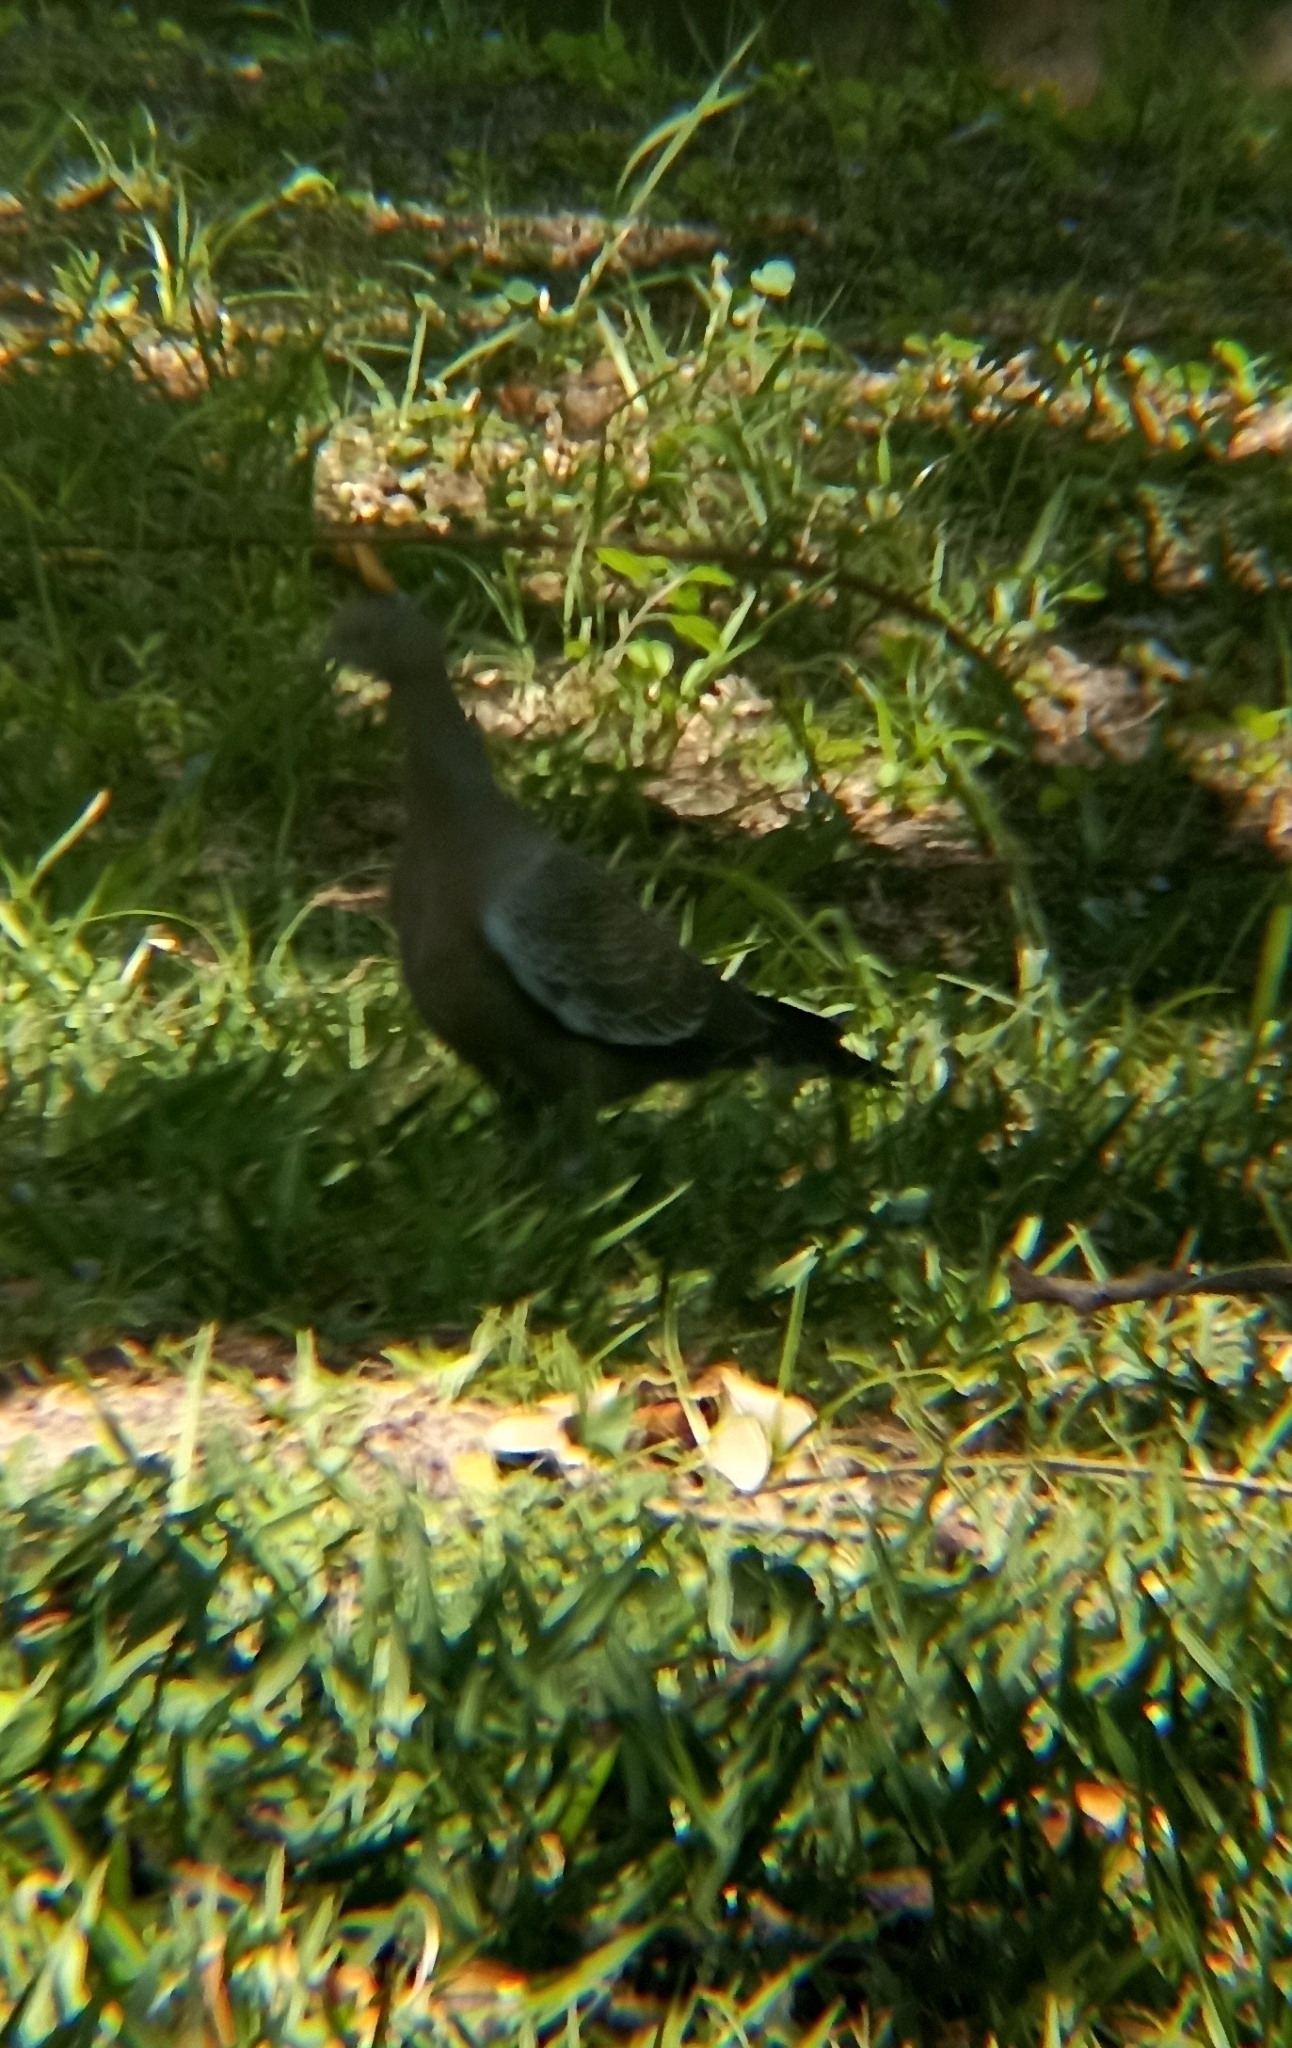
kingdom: Animalia
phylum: Chordata
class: Aves
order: Columbiformes
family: Columbidae
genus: Patagioenas
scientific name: Patagioenas picazuro
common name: Picazuro pigeon
